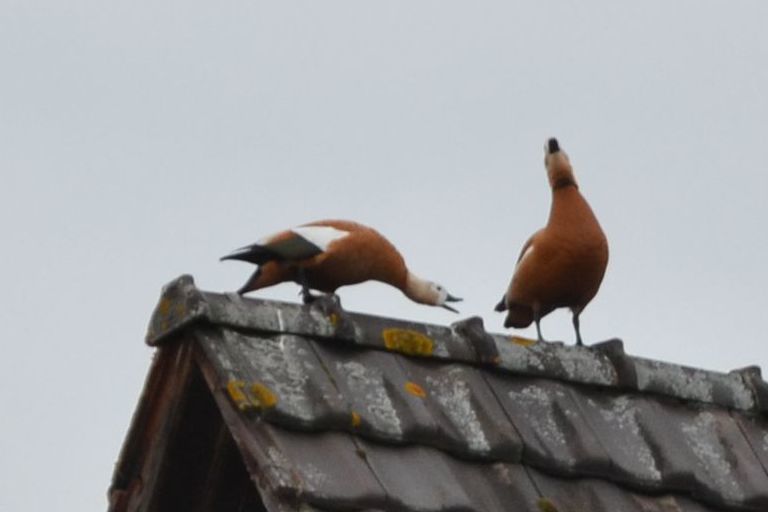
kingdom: Animalia
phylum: Chordata
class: Aves
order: Anseriformes
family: Anatidae
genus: Tadorna
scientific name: Tadorna ferruginea
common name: Ruddy shelduck
